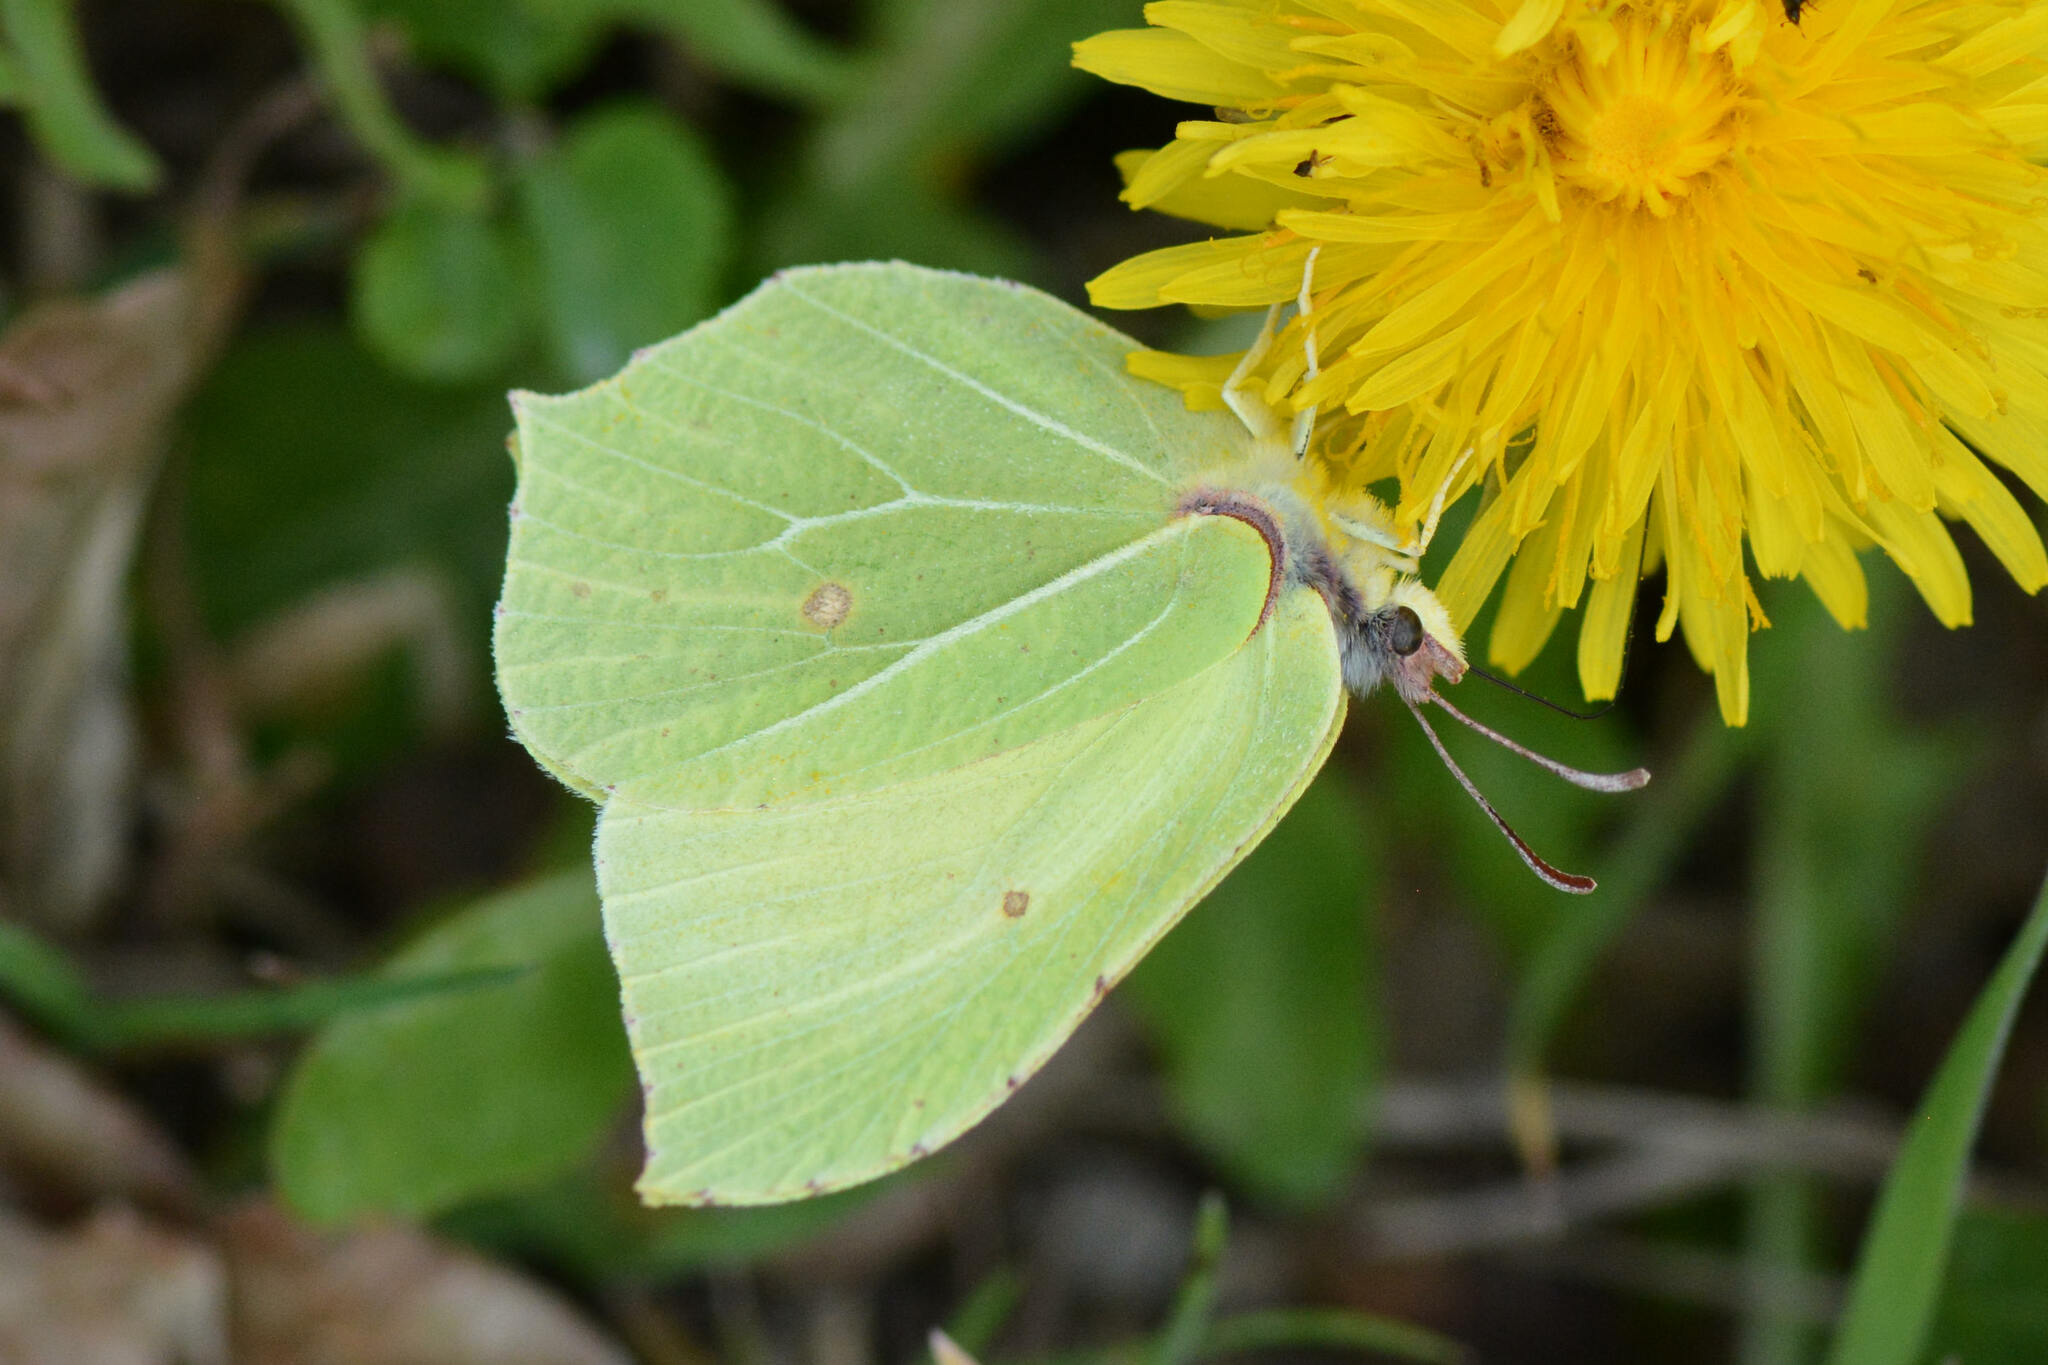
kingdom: Animalia
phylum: Arthropoda
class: Insecta
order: Lepidoptera
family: Pieridae
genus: Gonepteryx
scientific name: Gonepteryx rhamni
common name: Brimstone
